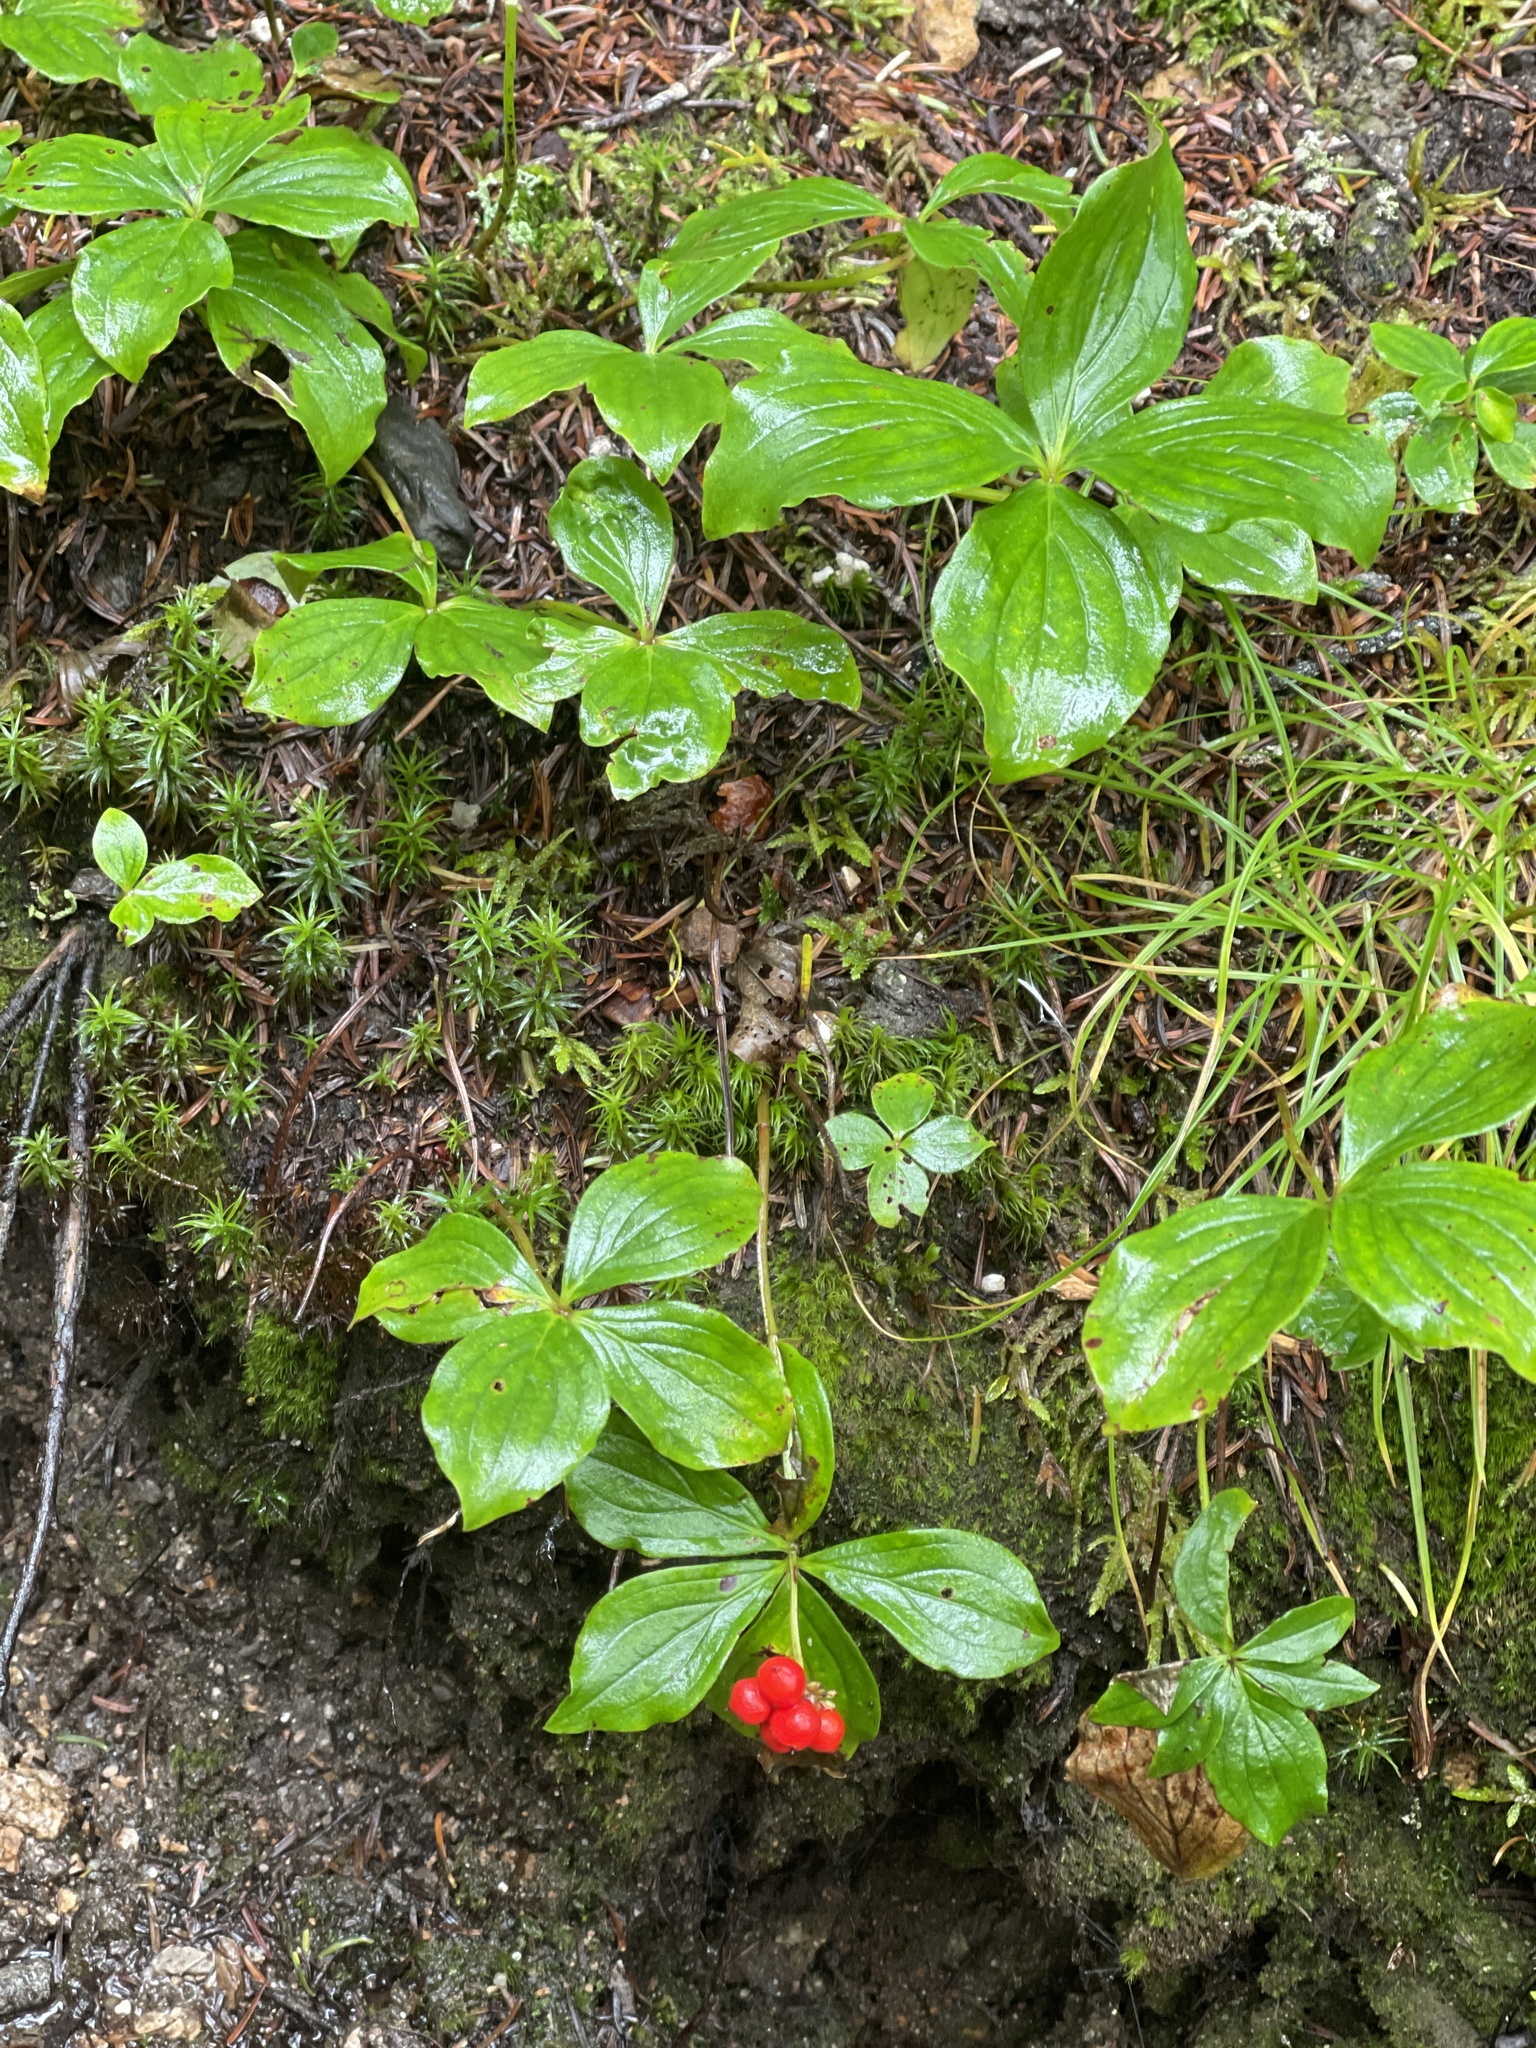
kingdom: Plantae
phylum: Tracheophyta
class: Magnoliopsida
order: Cornales
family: Cornaceae
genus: Cornus
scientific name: Cornus canadensis
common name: Creeping dogwood
